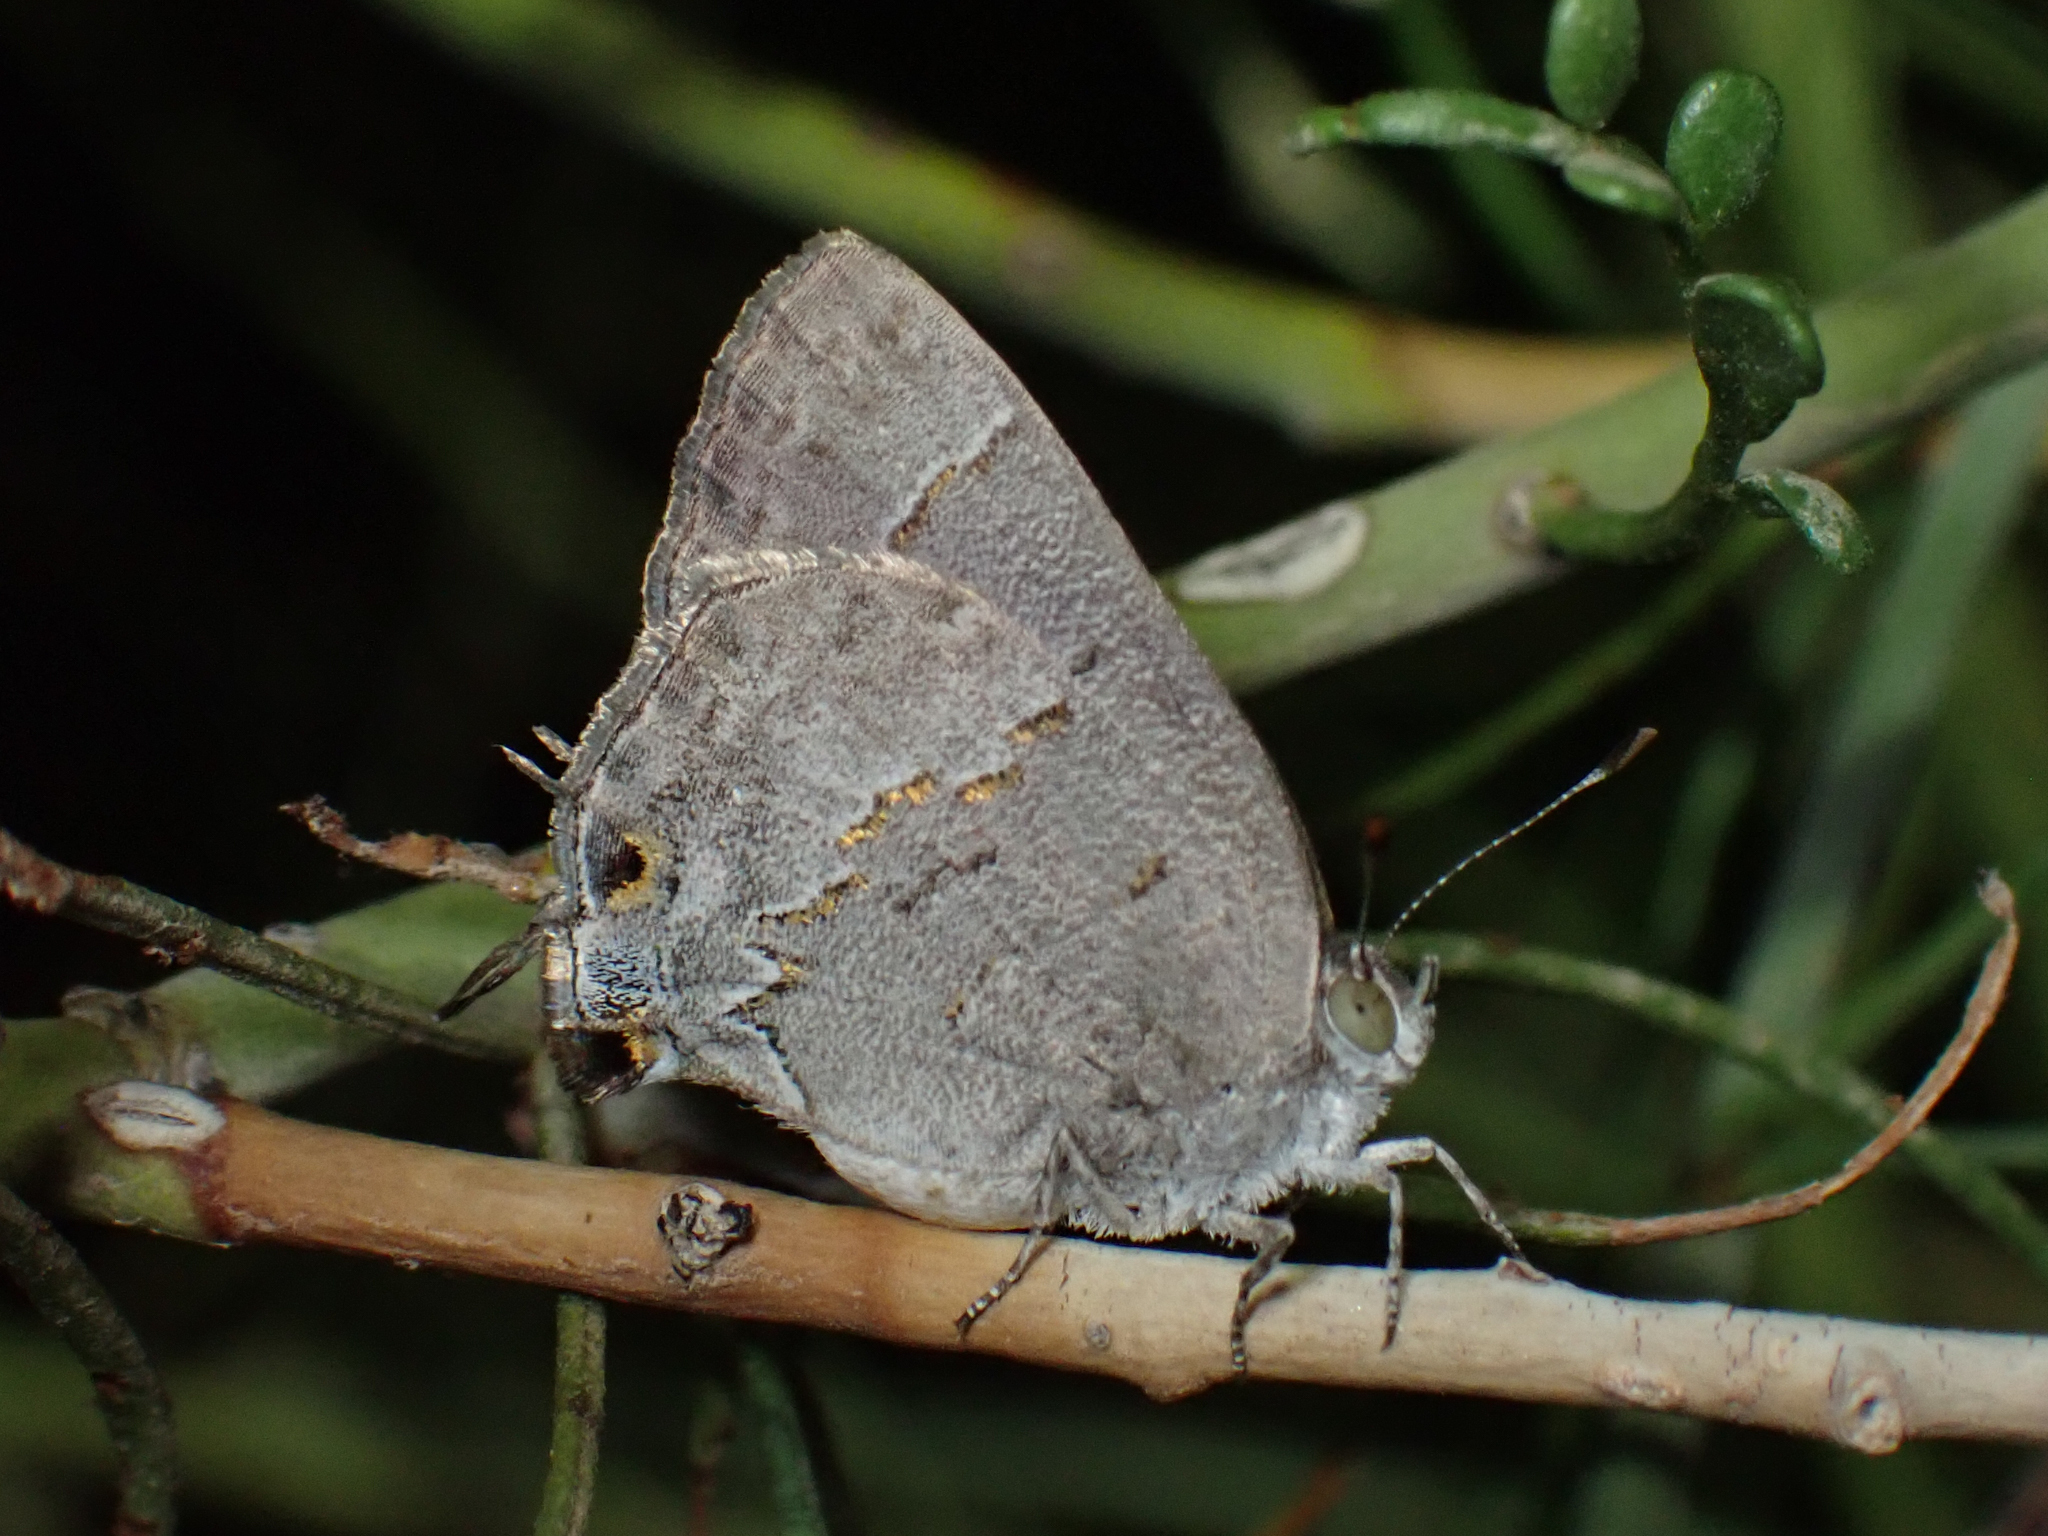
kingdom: Animalia
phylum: Arthropoda
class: Insecta
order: Lepidoptera
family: Lycaenidae
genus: Ministrymon
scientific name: Ministrymon leda
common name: Leda ministreak
